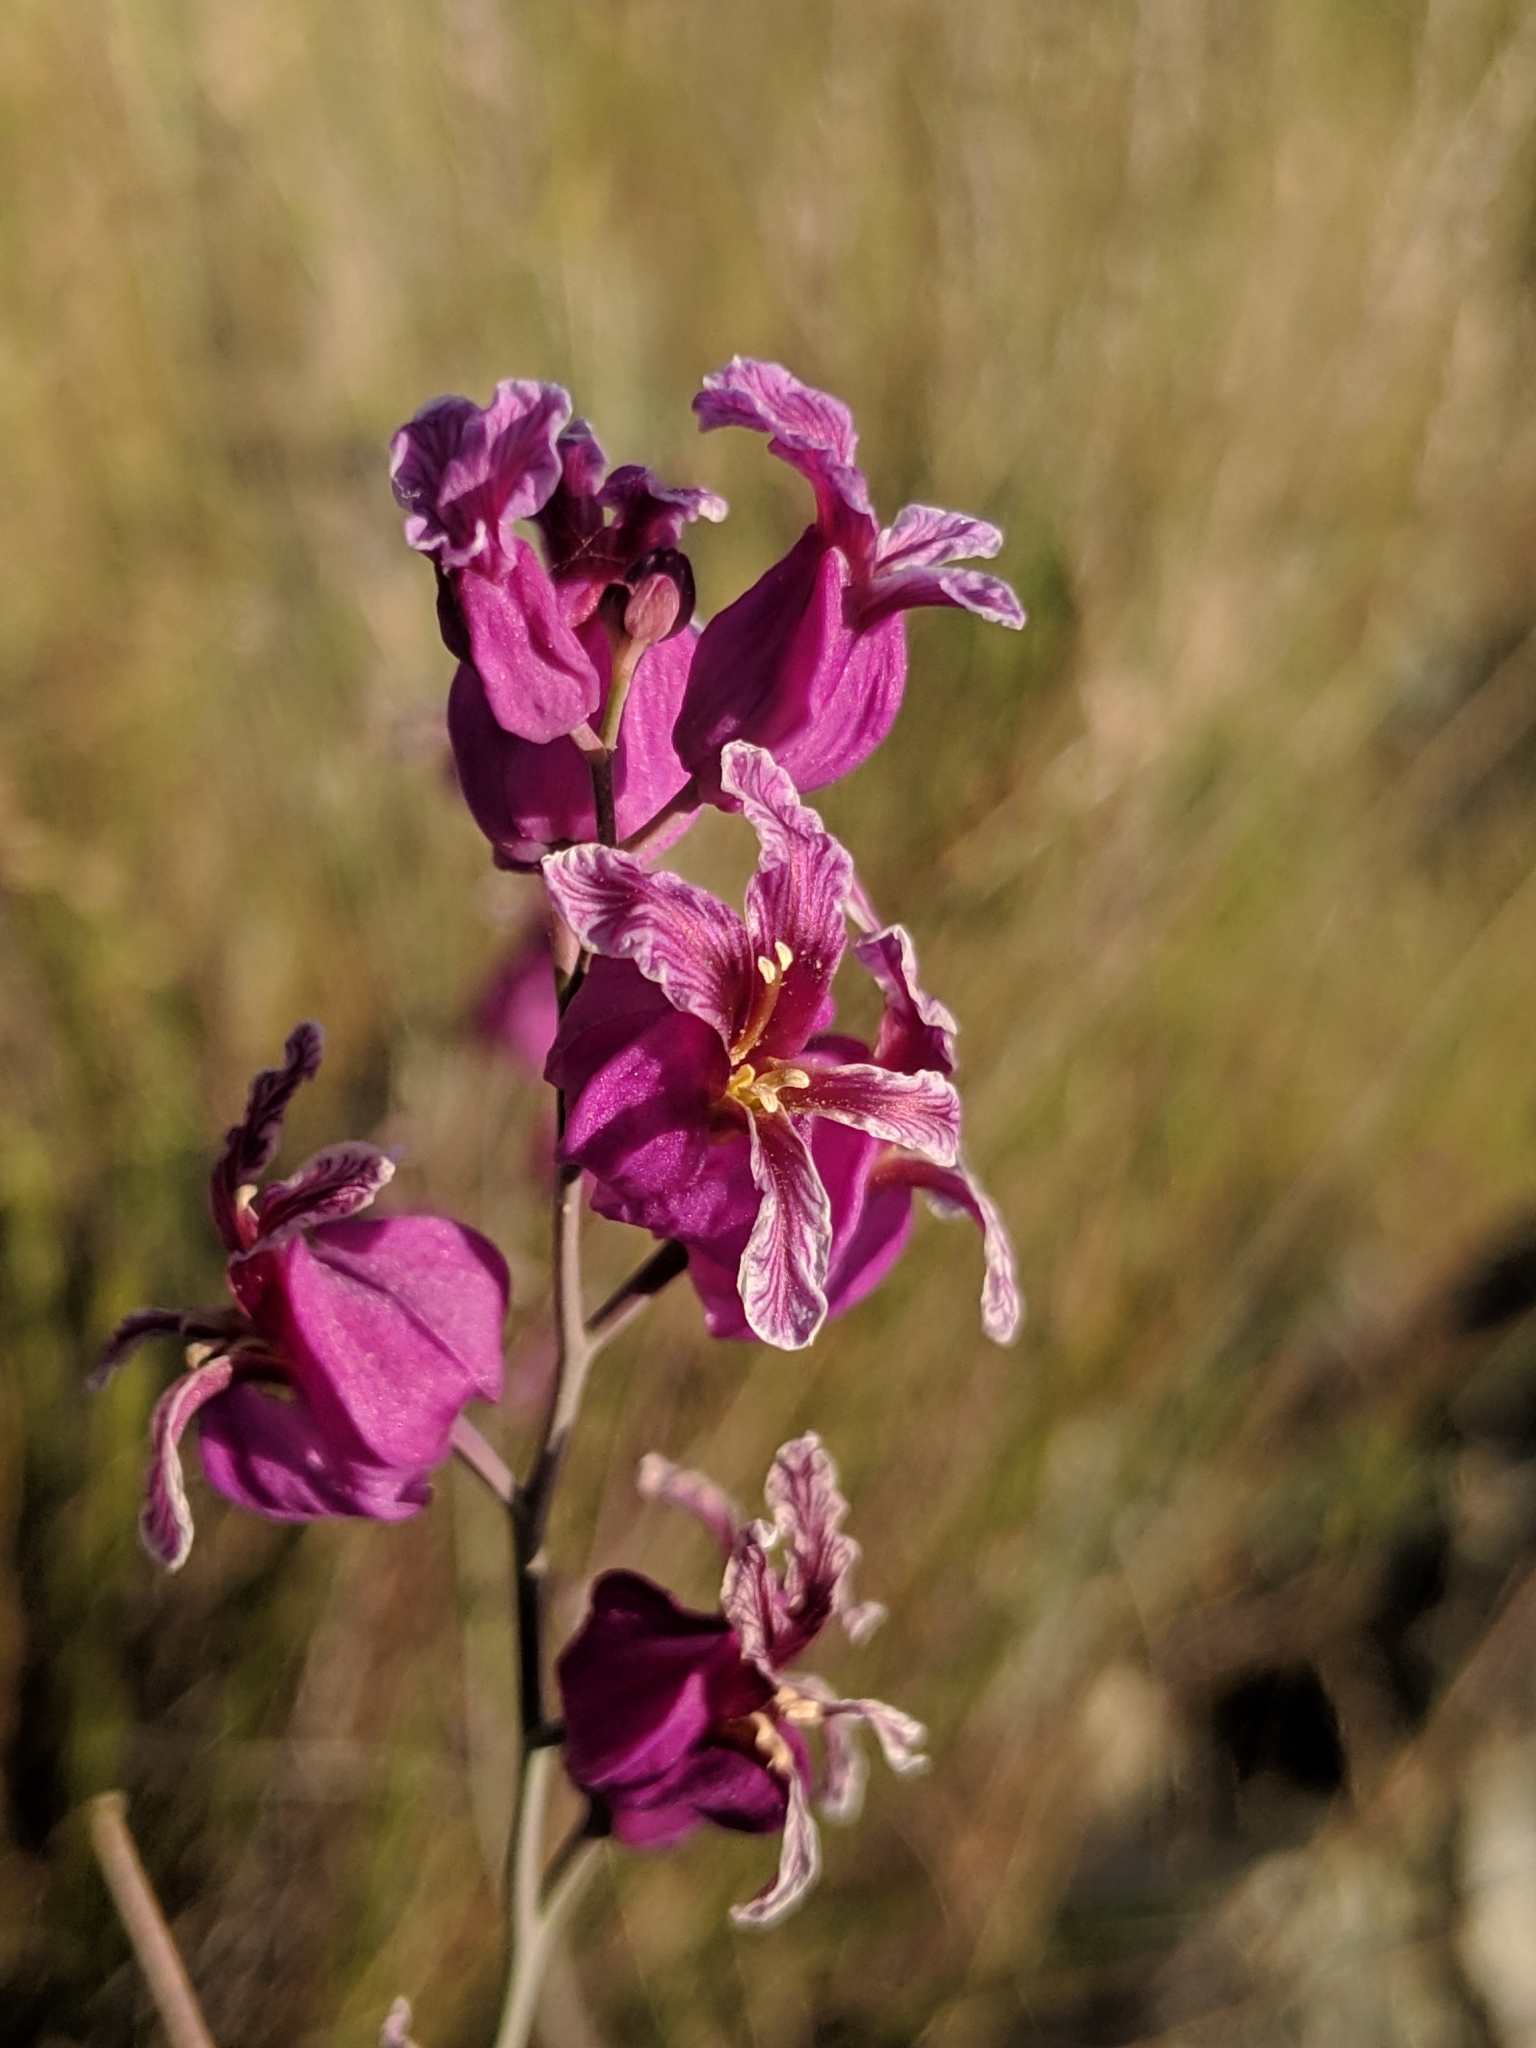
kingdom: Plantae
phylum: Tracheophyta
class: Magnoliopsida
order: Brassicales
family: Brassicaceae
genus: Streptanthus
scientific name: Streptanthus glandulosus
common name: Jewel-flower
